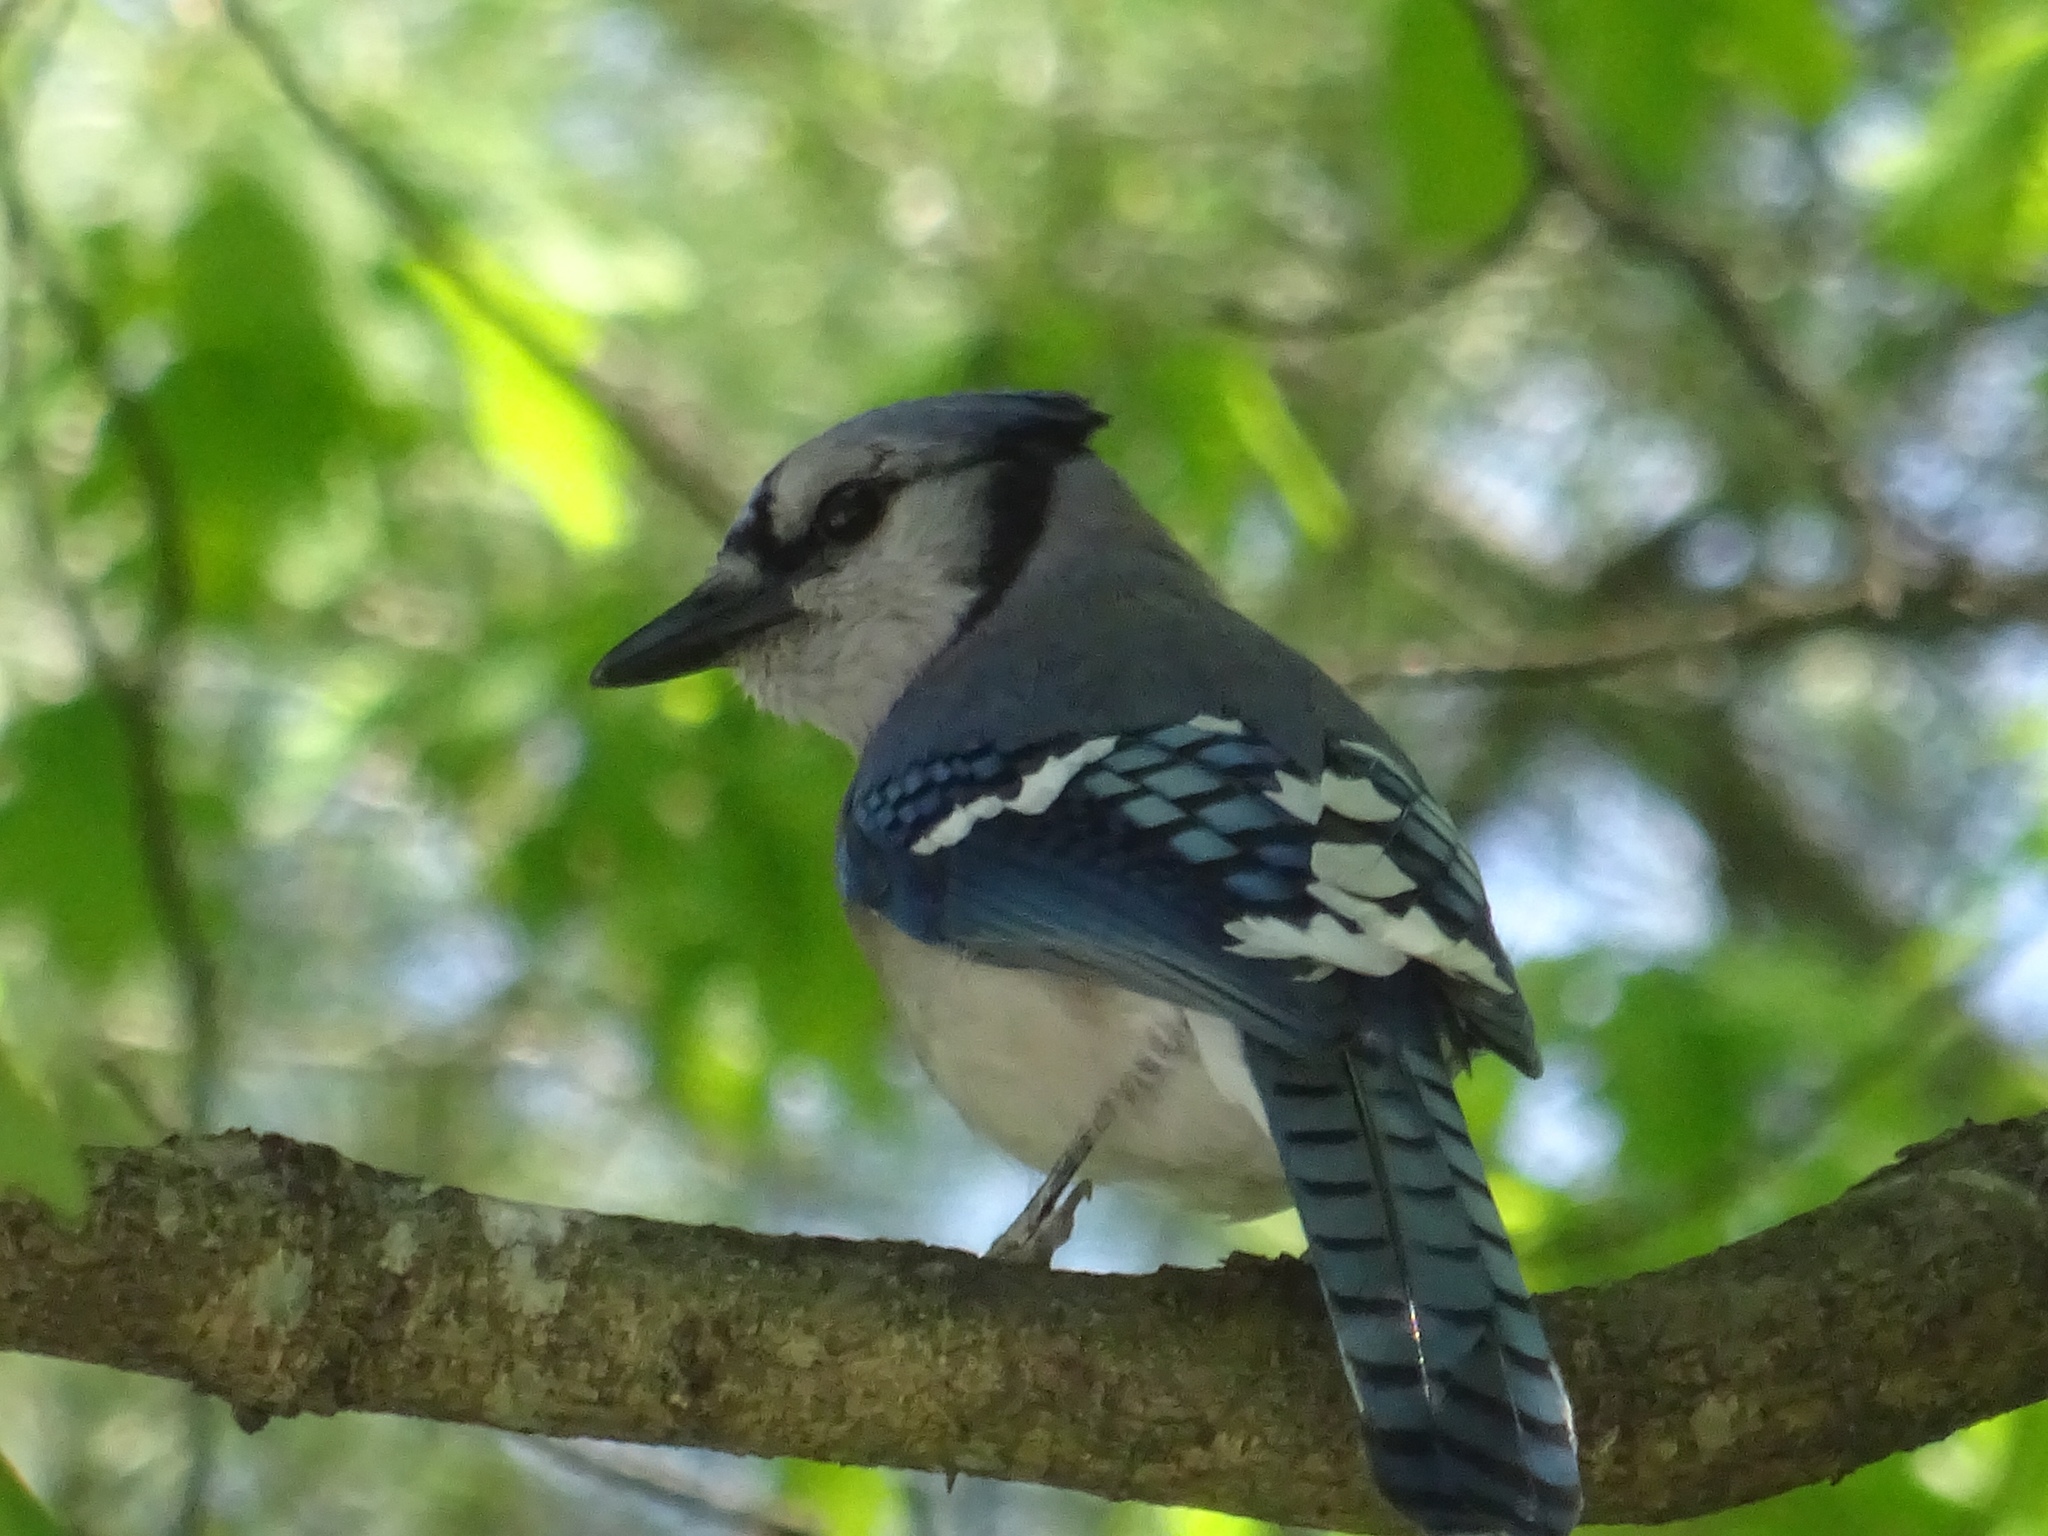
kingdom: Animalia
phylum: Chordata
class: Aves
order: Passeriformes
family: Corvidae
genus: Cyanocitta
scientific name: Cyanocitta cristata
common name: Blue jay
